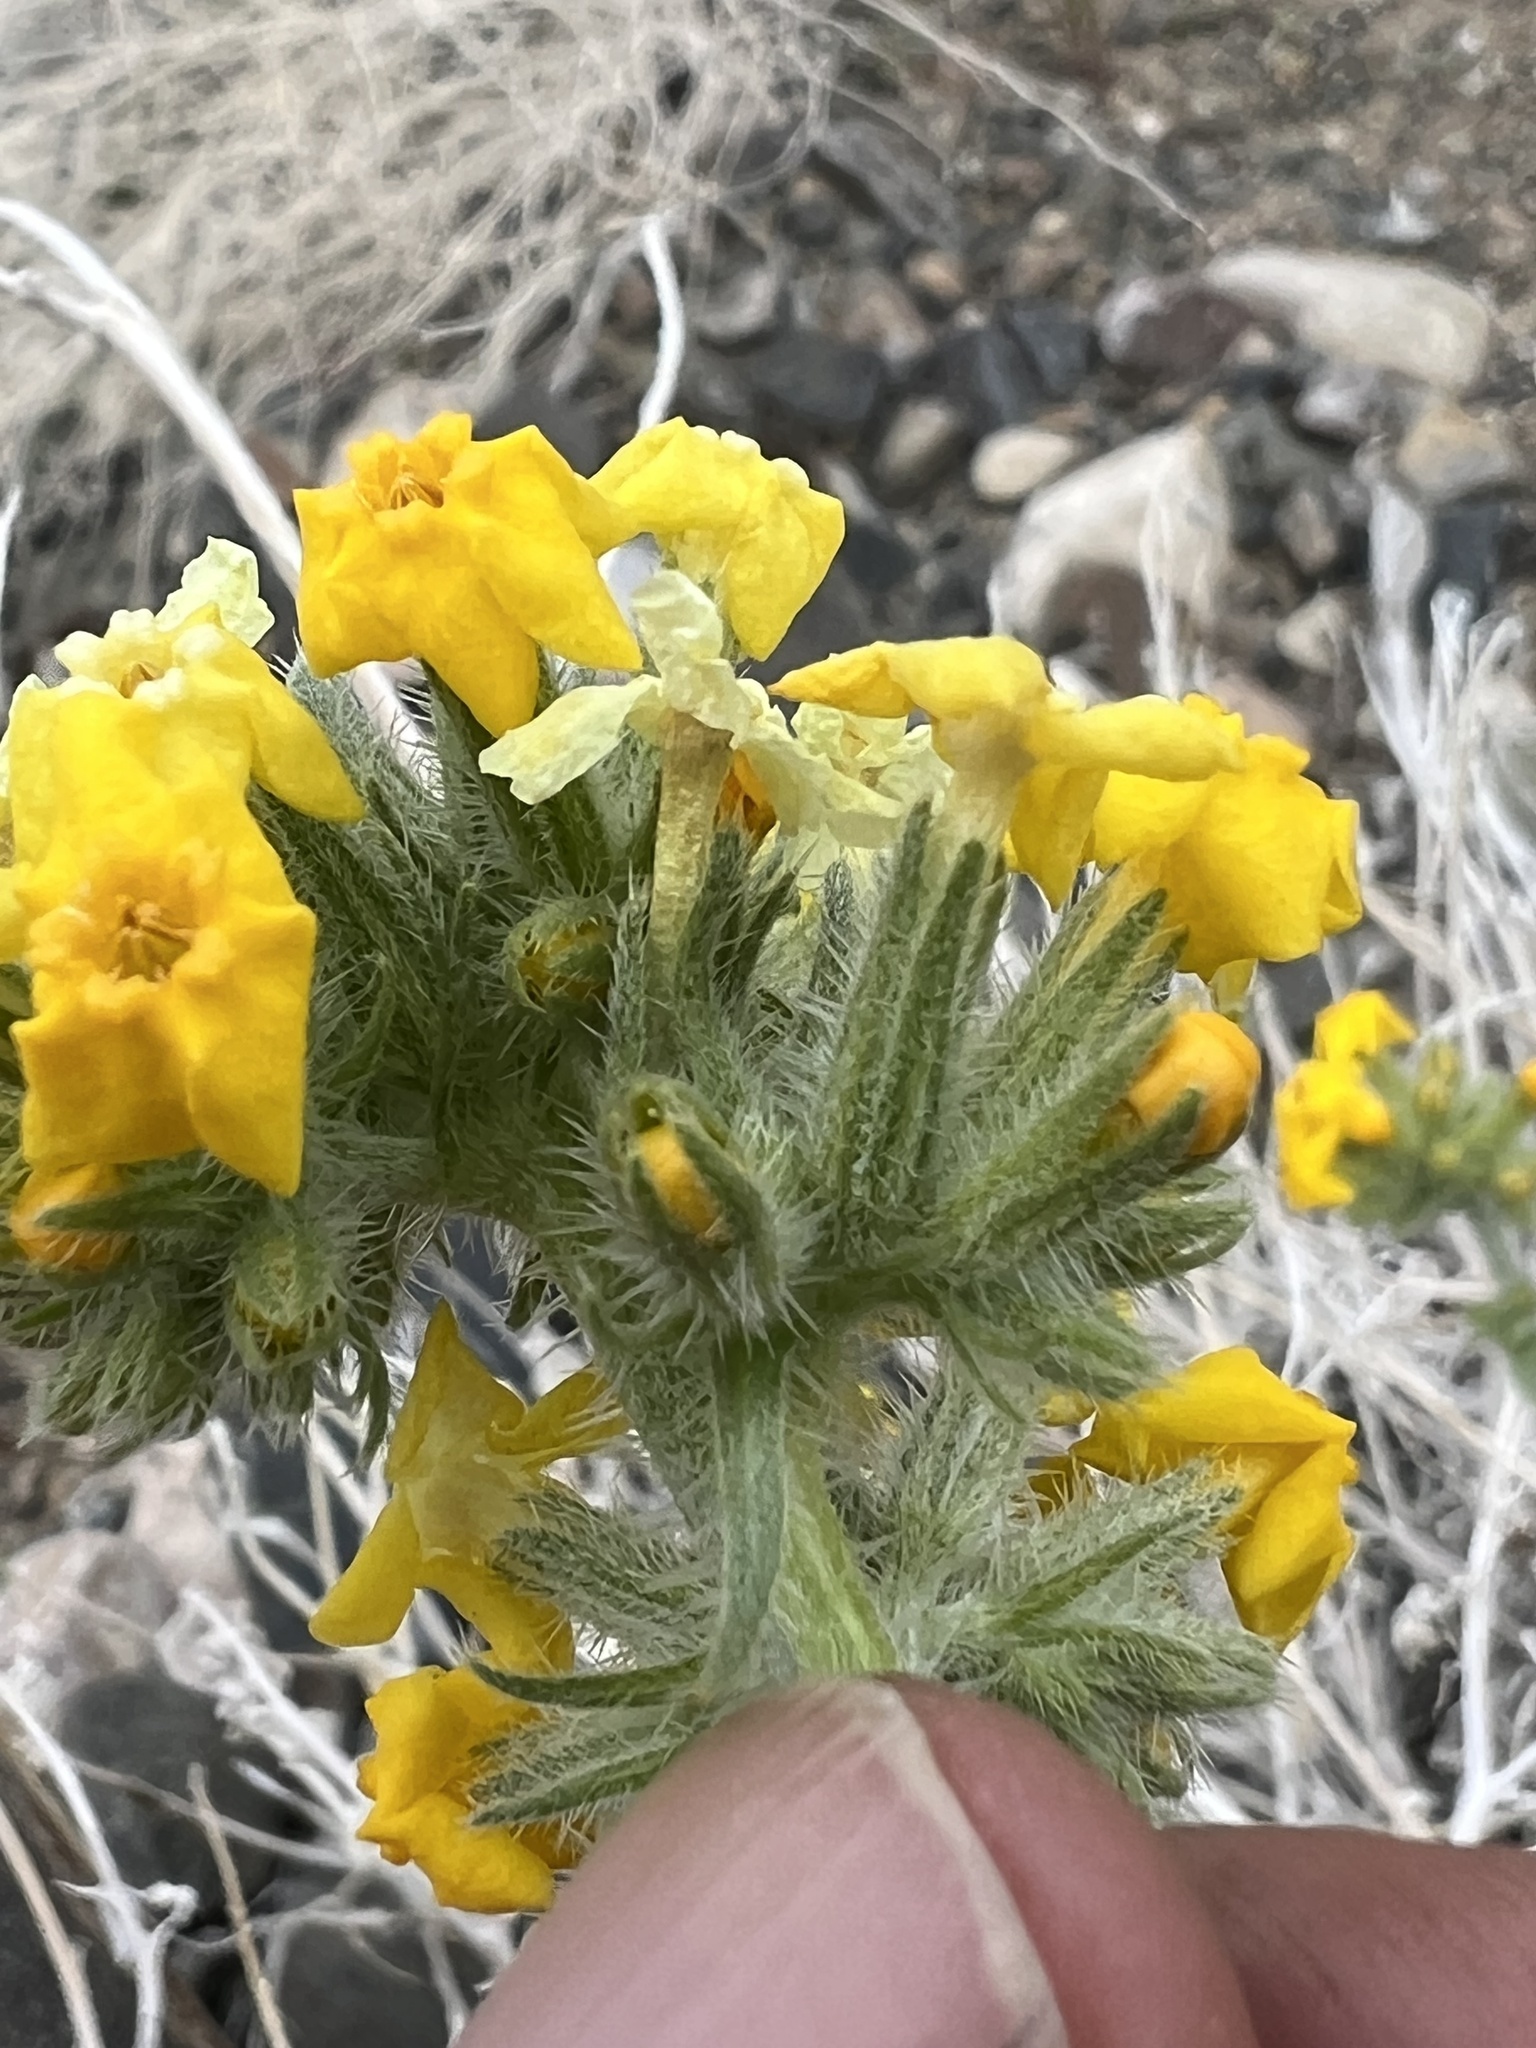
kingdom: Plantae
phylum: Tracheophyta
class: Magnoliopsida
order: Boraginales
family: Boraginaceae
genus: Oreocarya
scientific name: Oreocarya confertiflora
